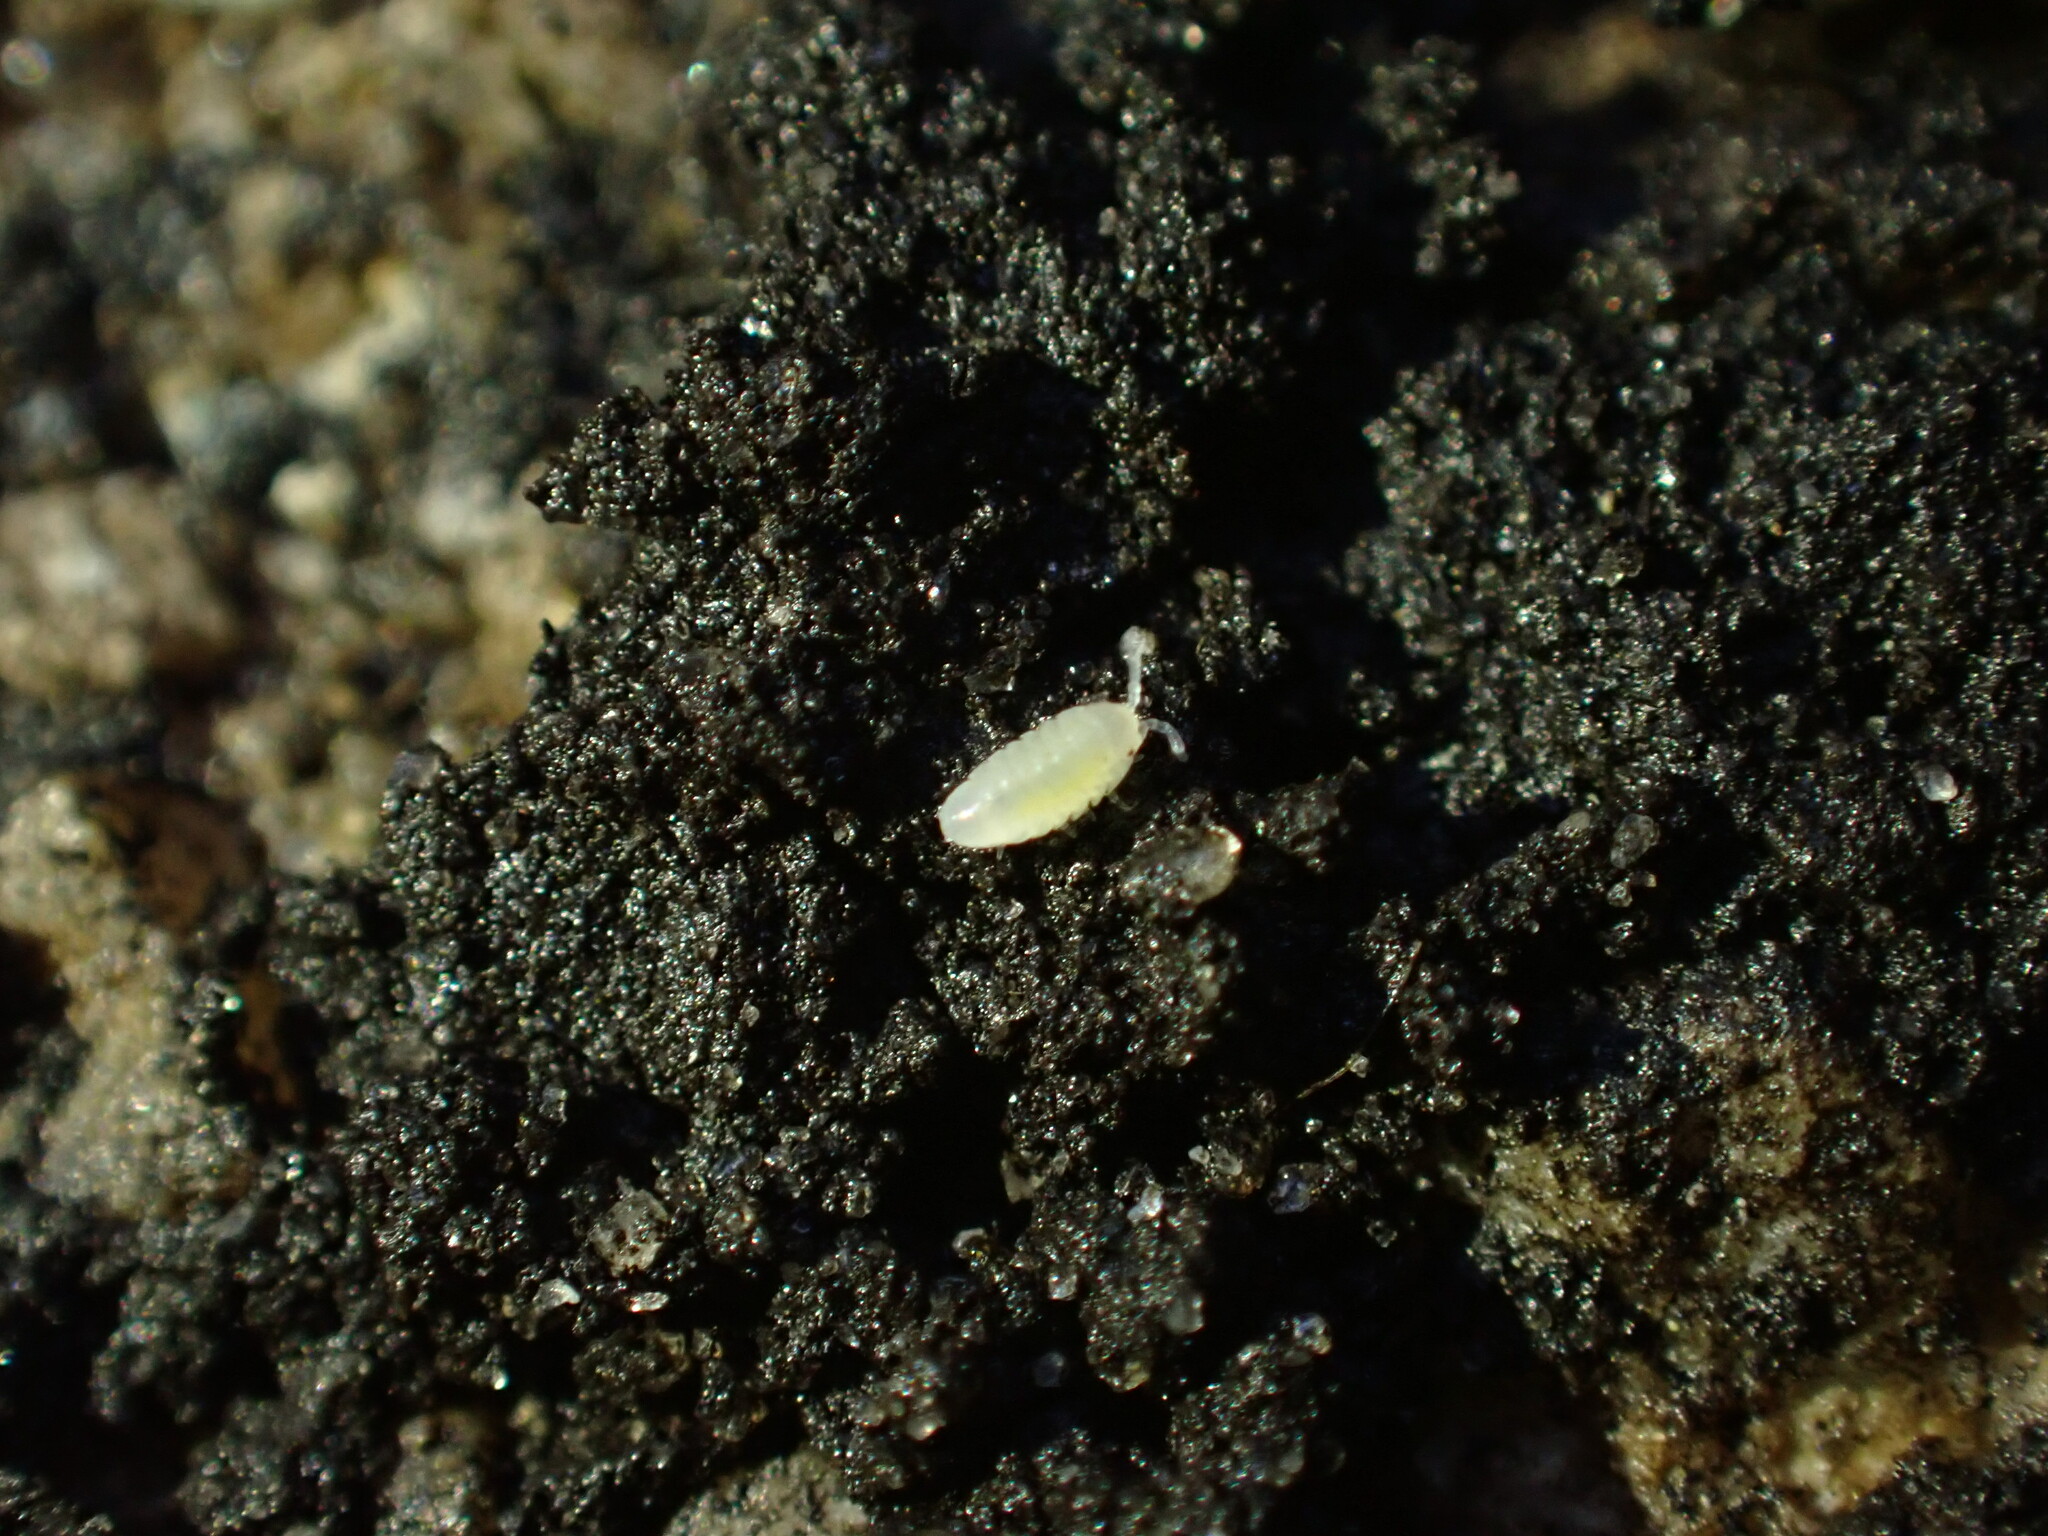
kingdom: Animalia
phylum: Arthropoda
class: Malacostraca
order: Isopoda
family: Armadillidiidae
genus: Armadillidium
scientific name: Armadillidium vulgare
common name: Common pill woodlouse
